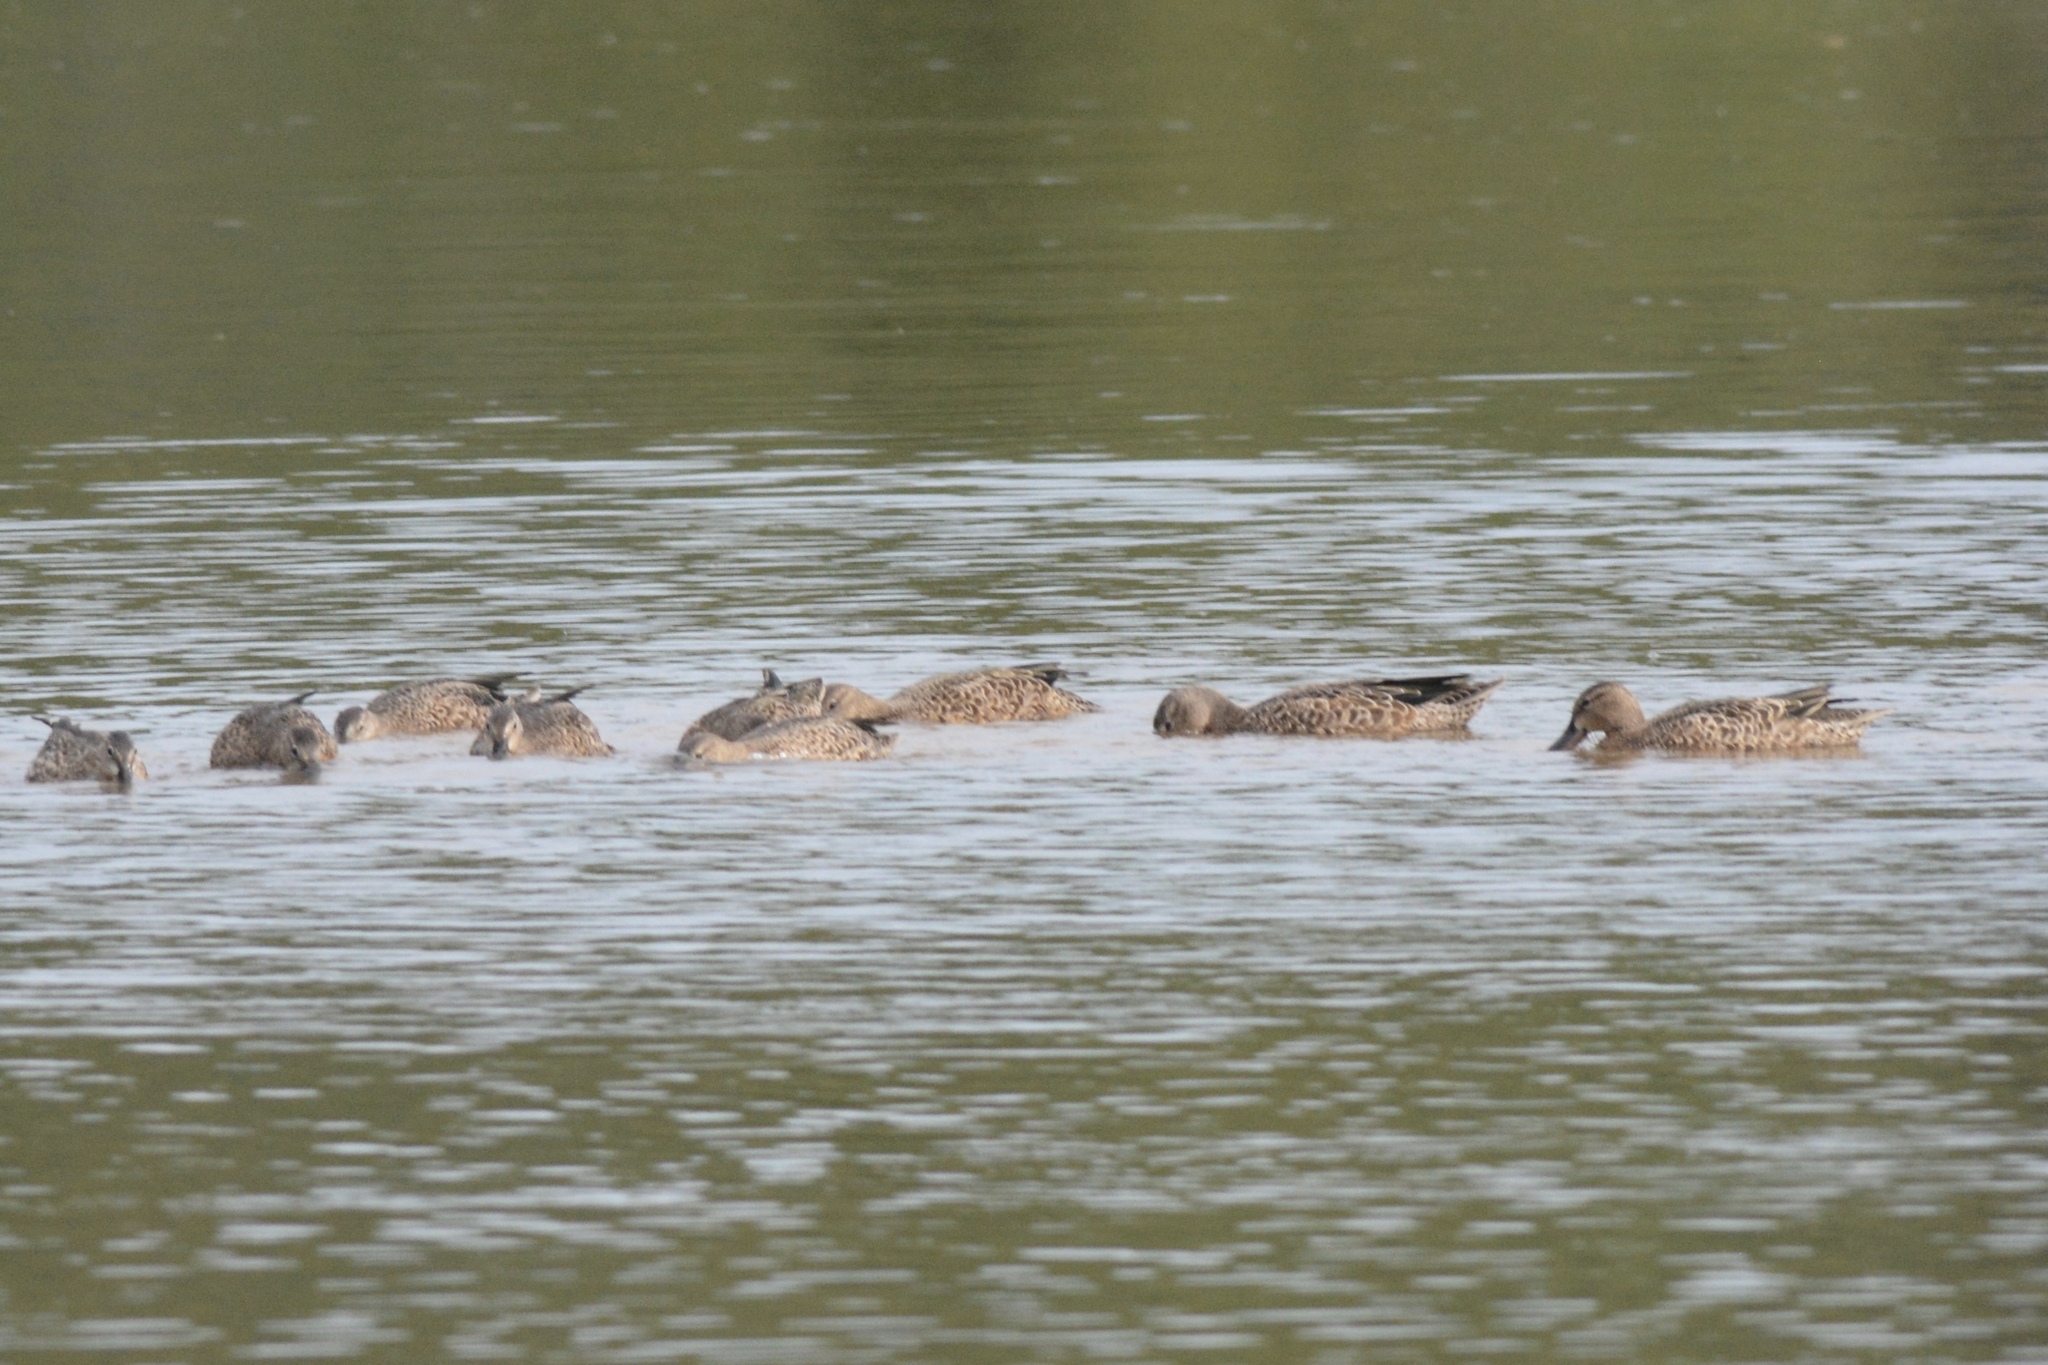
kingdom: Animalia
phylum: Chordata
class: Aves
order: Anseriformes
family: Anatidae
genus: Spatula
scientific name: Spatula discors
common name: Blue-winged teal
